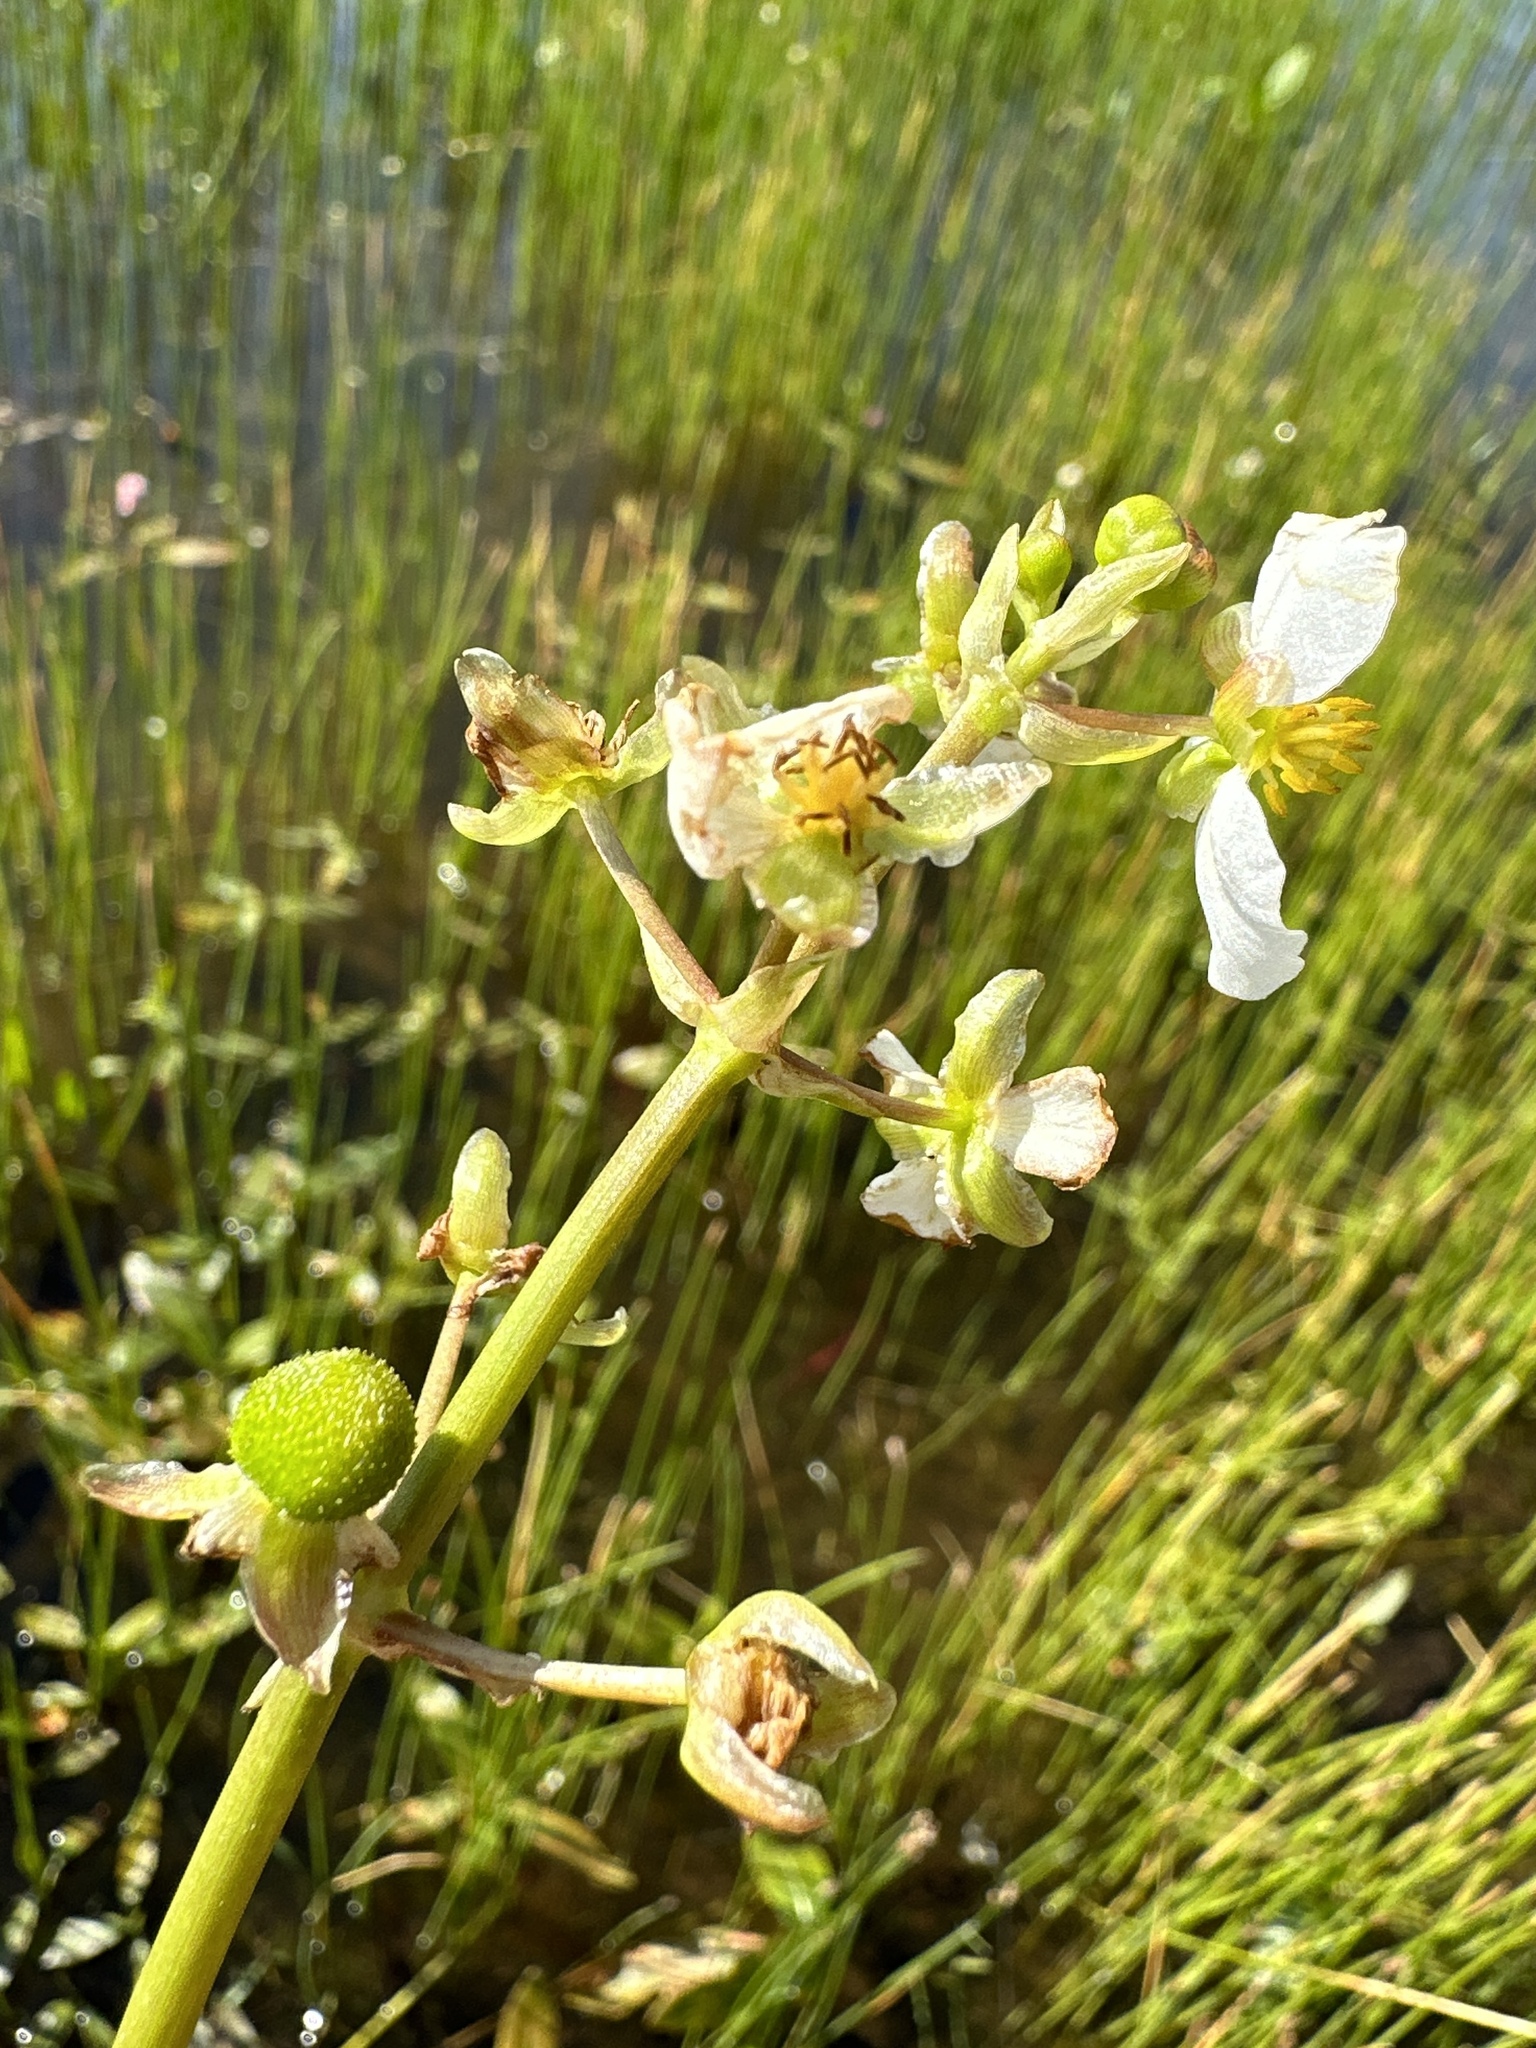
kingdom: Plantae
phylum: Tracheophyta
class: Liliopsida
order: Alismatales
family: Alismataceae
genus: Sagittaria
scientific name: Sagittaria cuneata
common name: Northern arrowhead
